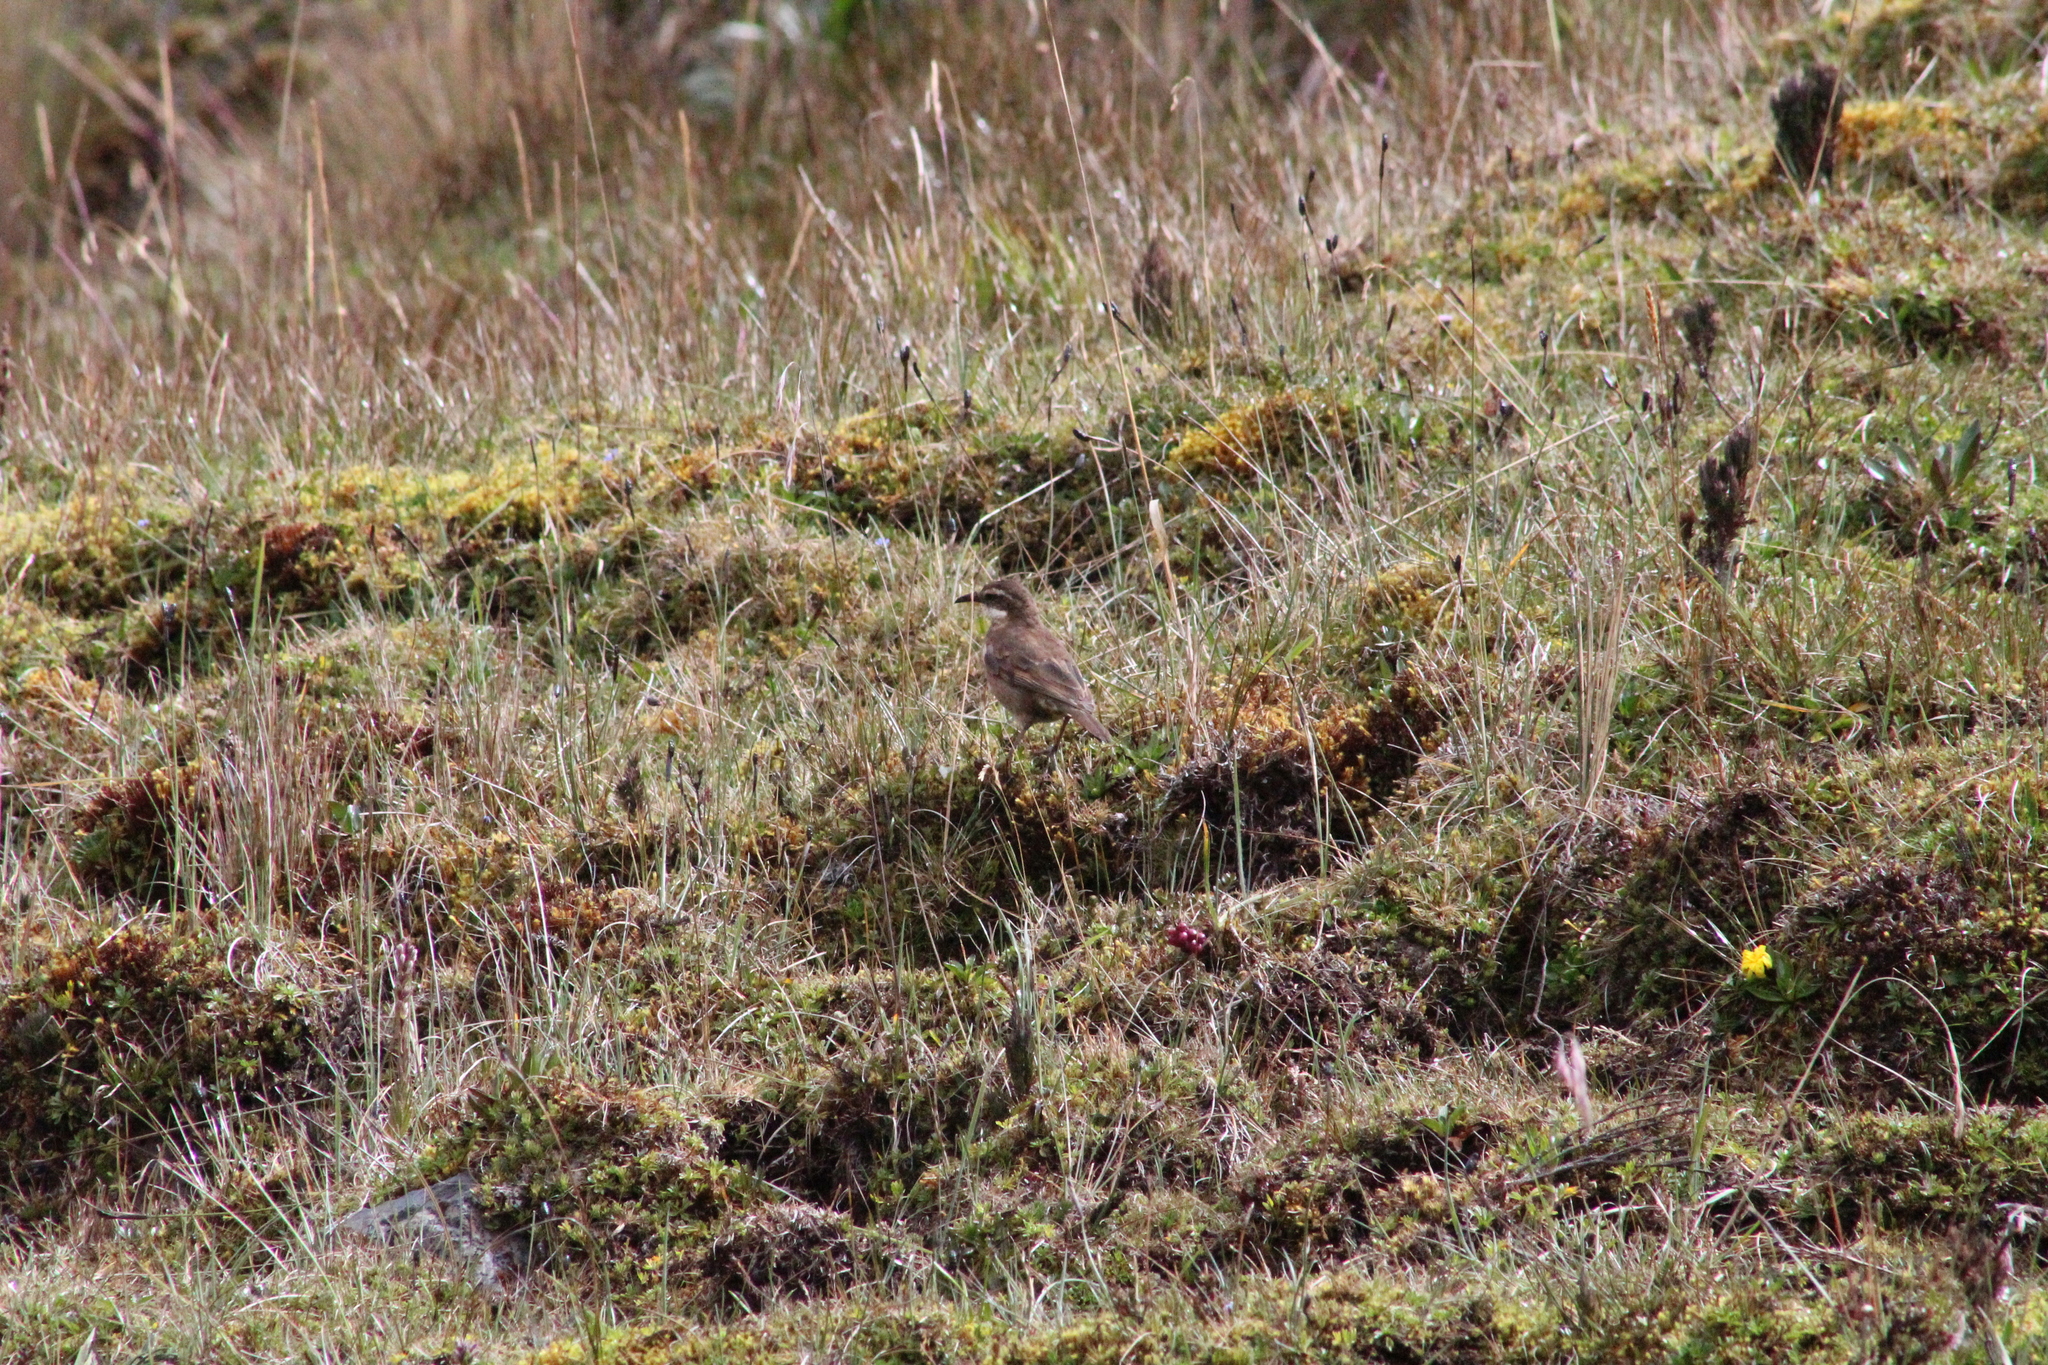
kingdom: Animalia
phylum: Chordata
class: Aves
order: Passeriformes
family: Furnariidae
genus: Cinclodes
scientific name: Cinclodes excelsior
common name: Stout-billed cinclodes
